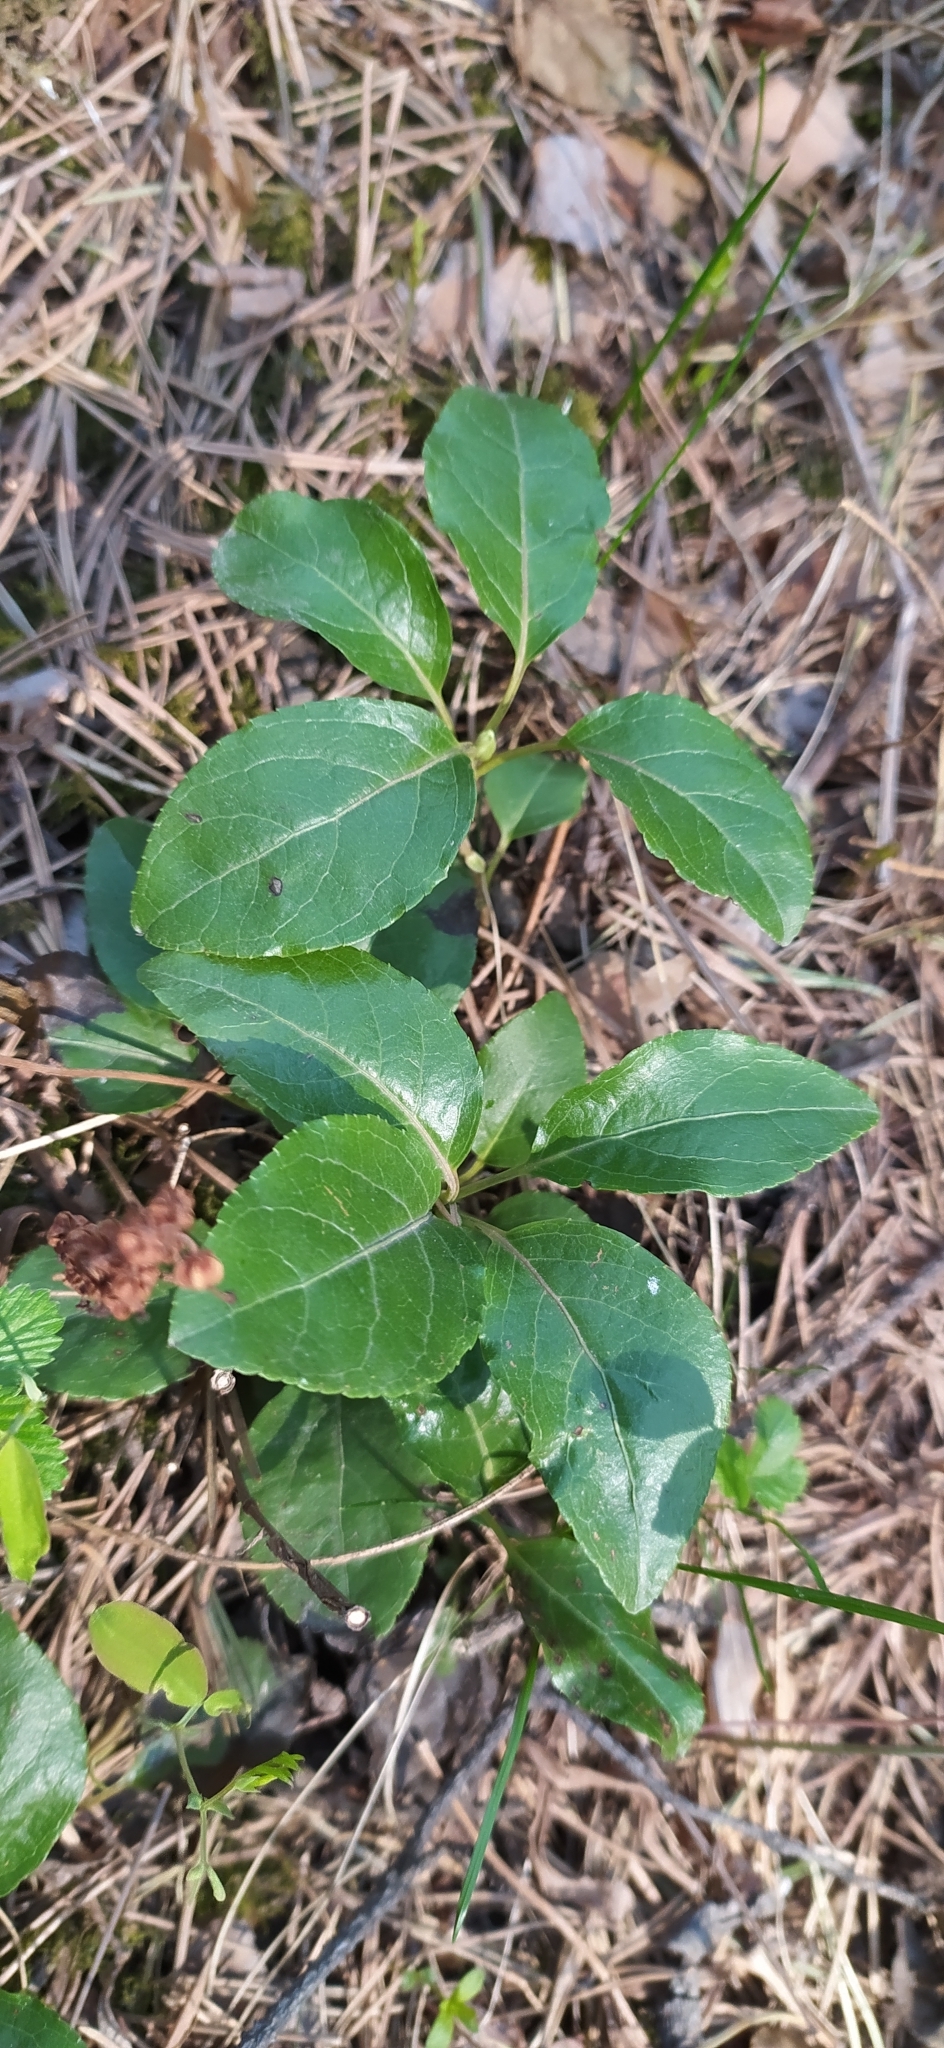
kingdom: Plantae
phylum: Tracheophyta
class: Magnoliopsida
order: Ericales
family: Ericaceae
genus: Orthilia
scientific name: Orthilia secunda
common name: One-sided orthilia
